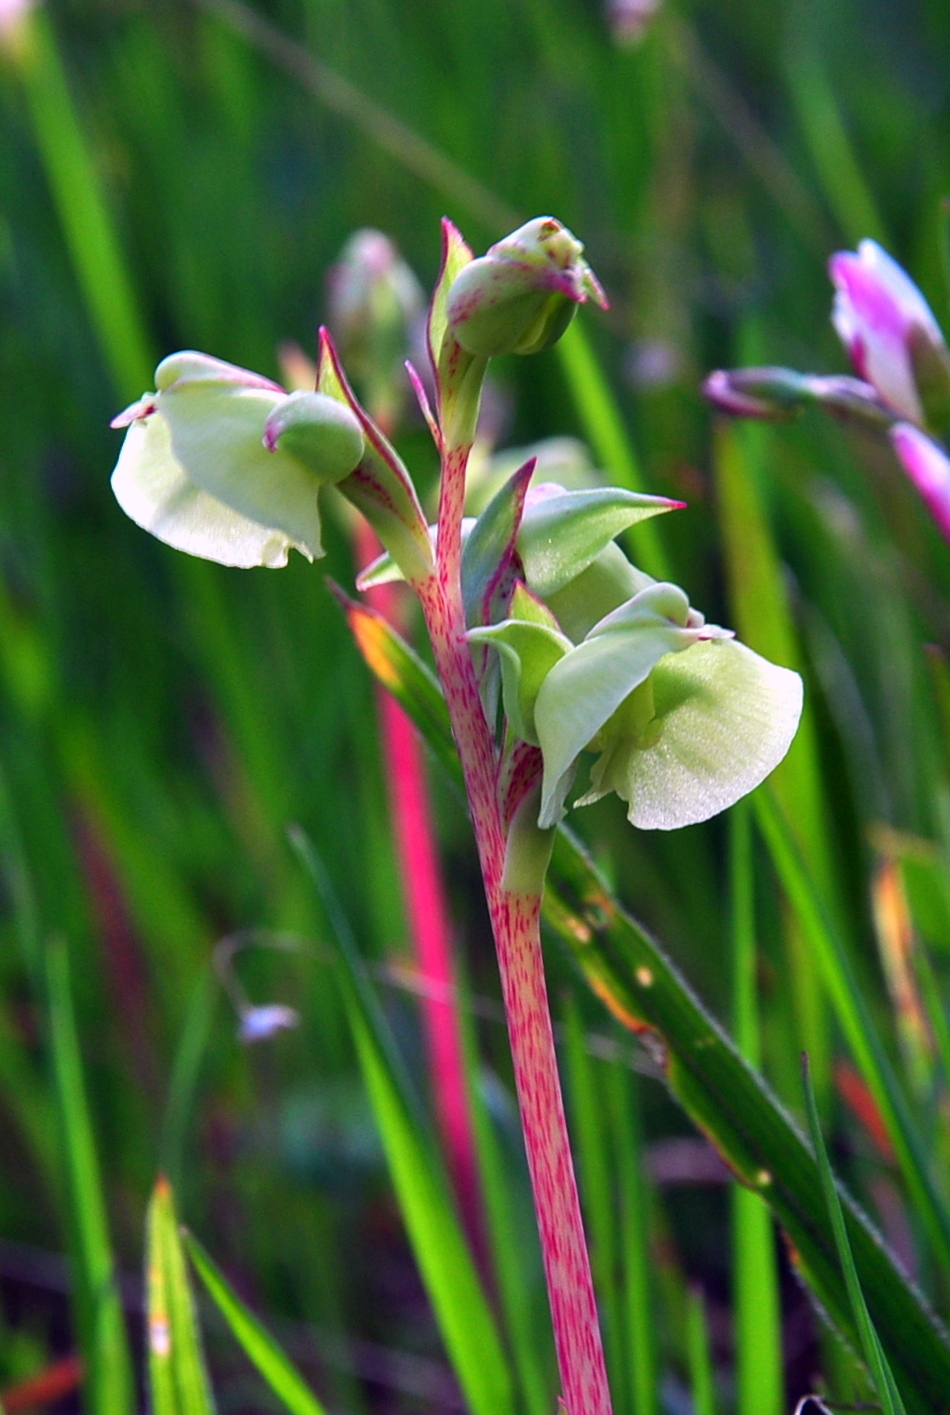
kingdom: Plantae
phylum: Tracheophyta
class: Liliopsida
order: Asparagales
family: Orchidaceae
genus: Pterygodium
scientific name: Pterygodium catholicum
